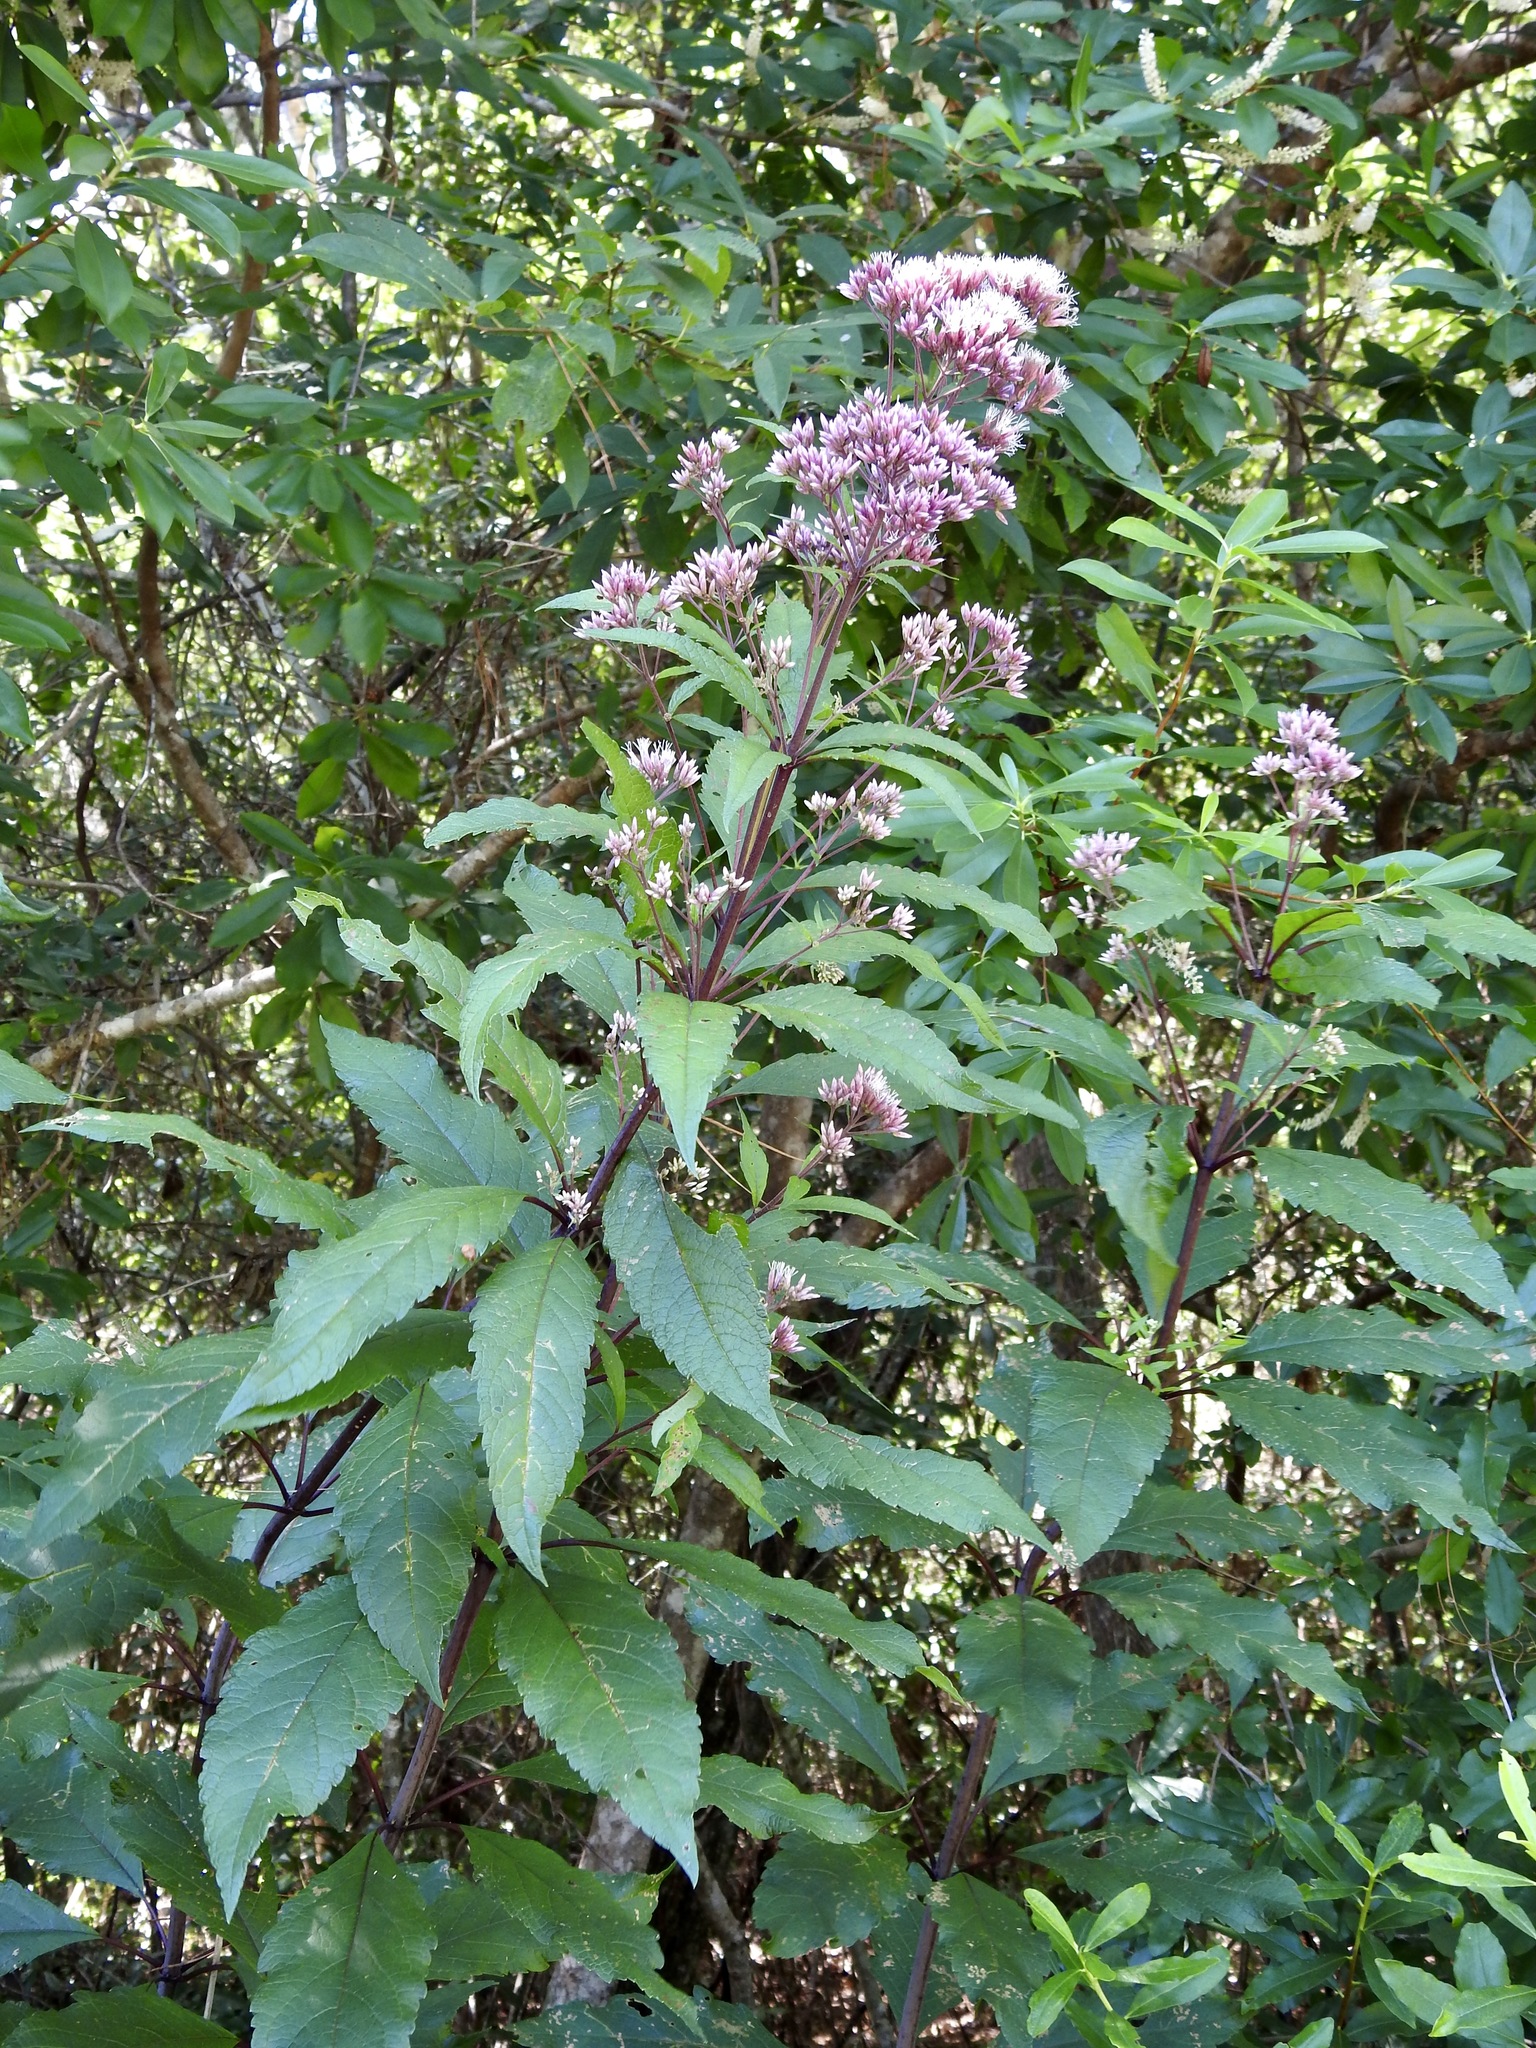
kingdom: Plantae
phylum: Tracheophyta
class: Magnoliopsida
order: Asterales
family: Asteraceae
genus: Eutrochium
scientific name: Eutrochium fistulosum
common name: Trumpetweed
